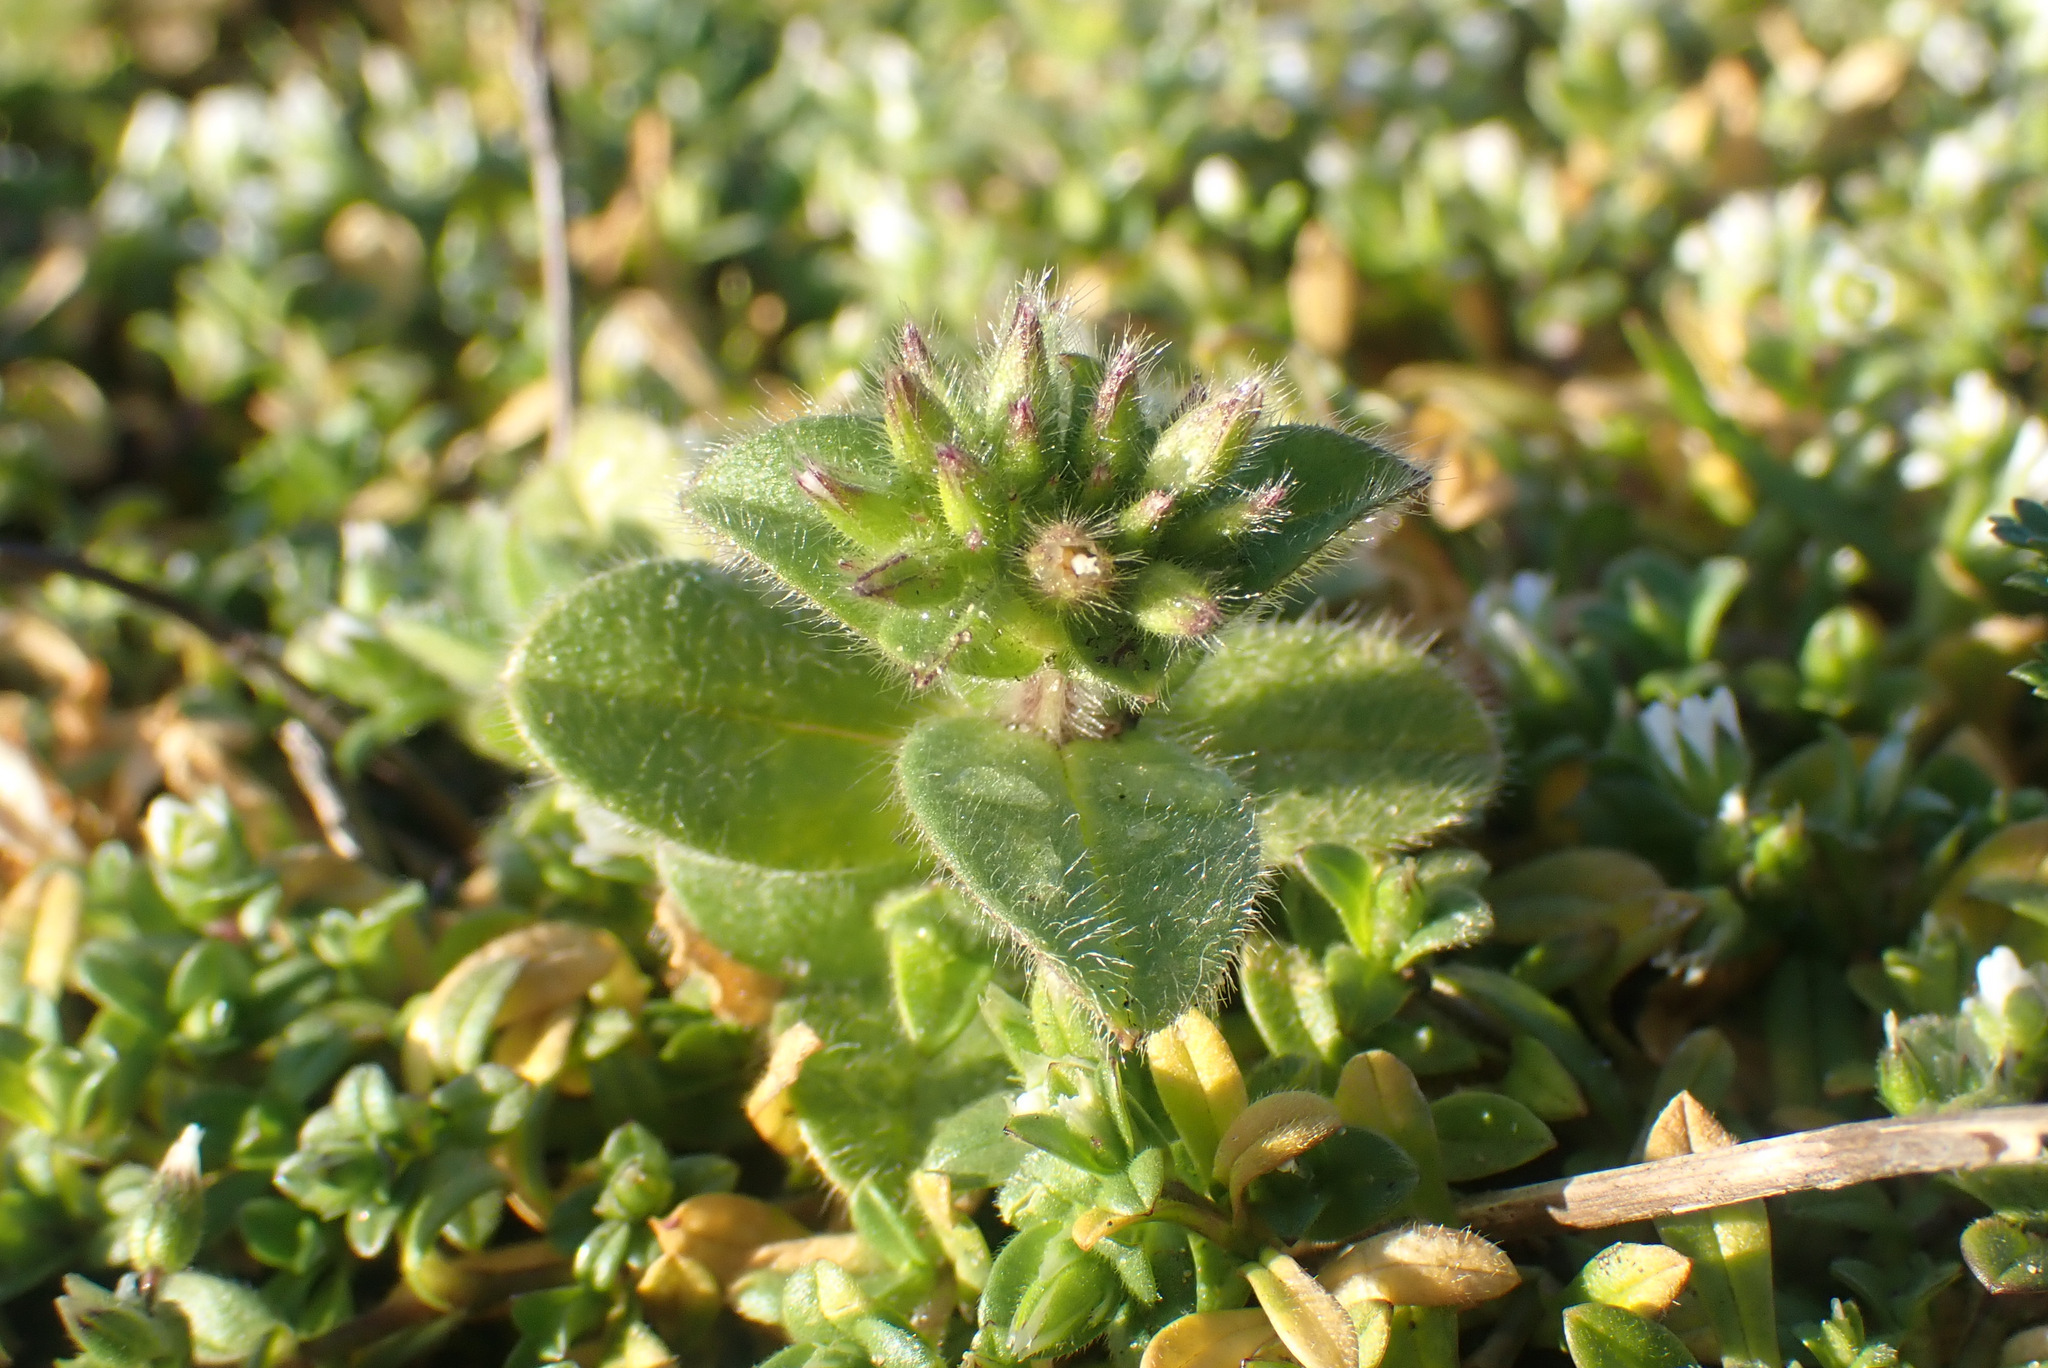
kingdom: Plantae
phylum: Tracheophyta
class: Magnoliopsida
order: Caryophyllales
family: Caryophyllaceae
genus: Cerastium
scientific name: Cerastium glomeratum
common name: Sticky chickweed
